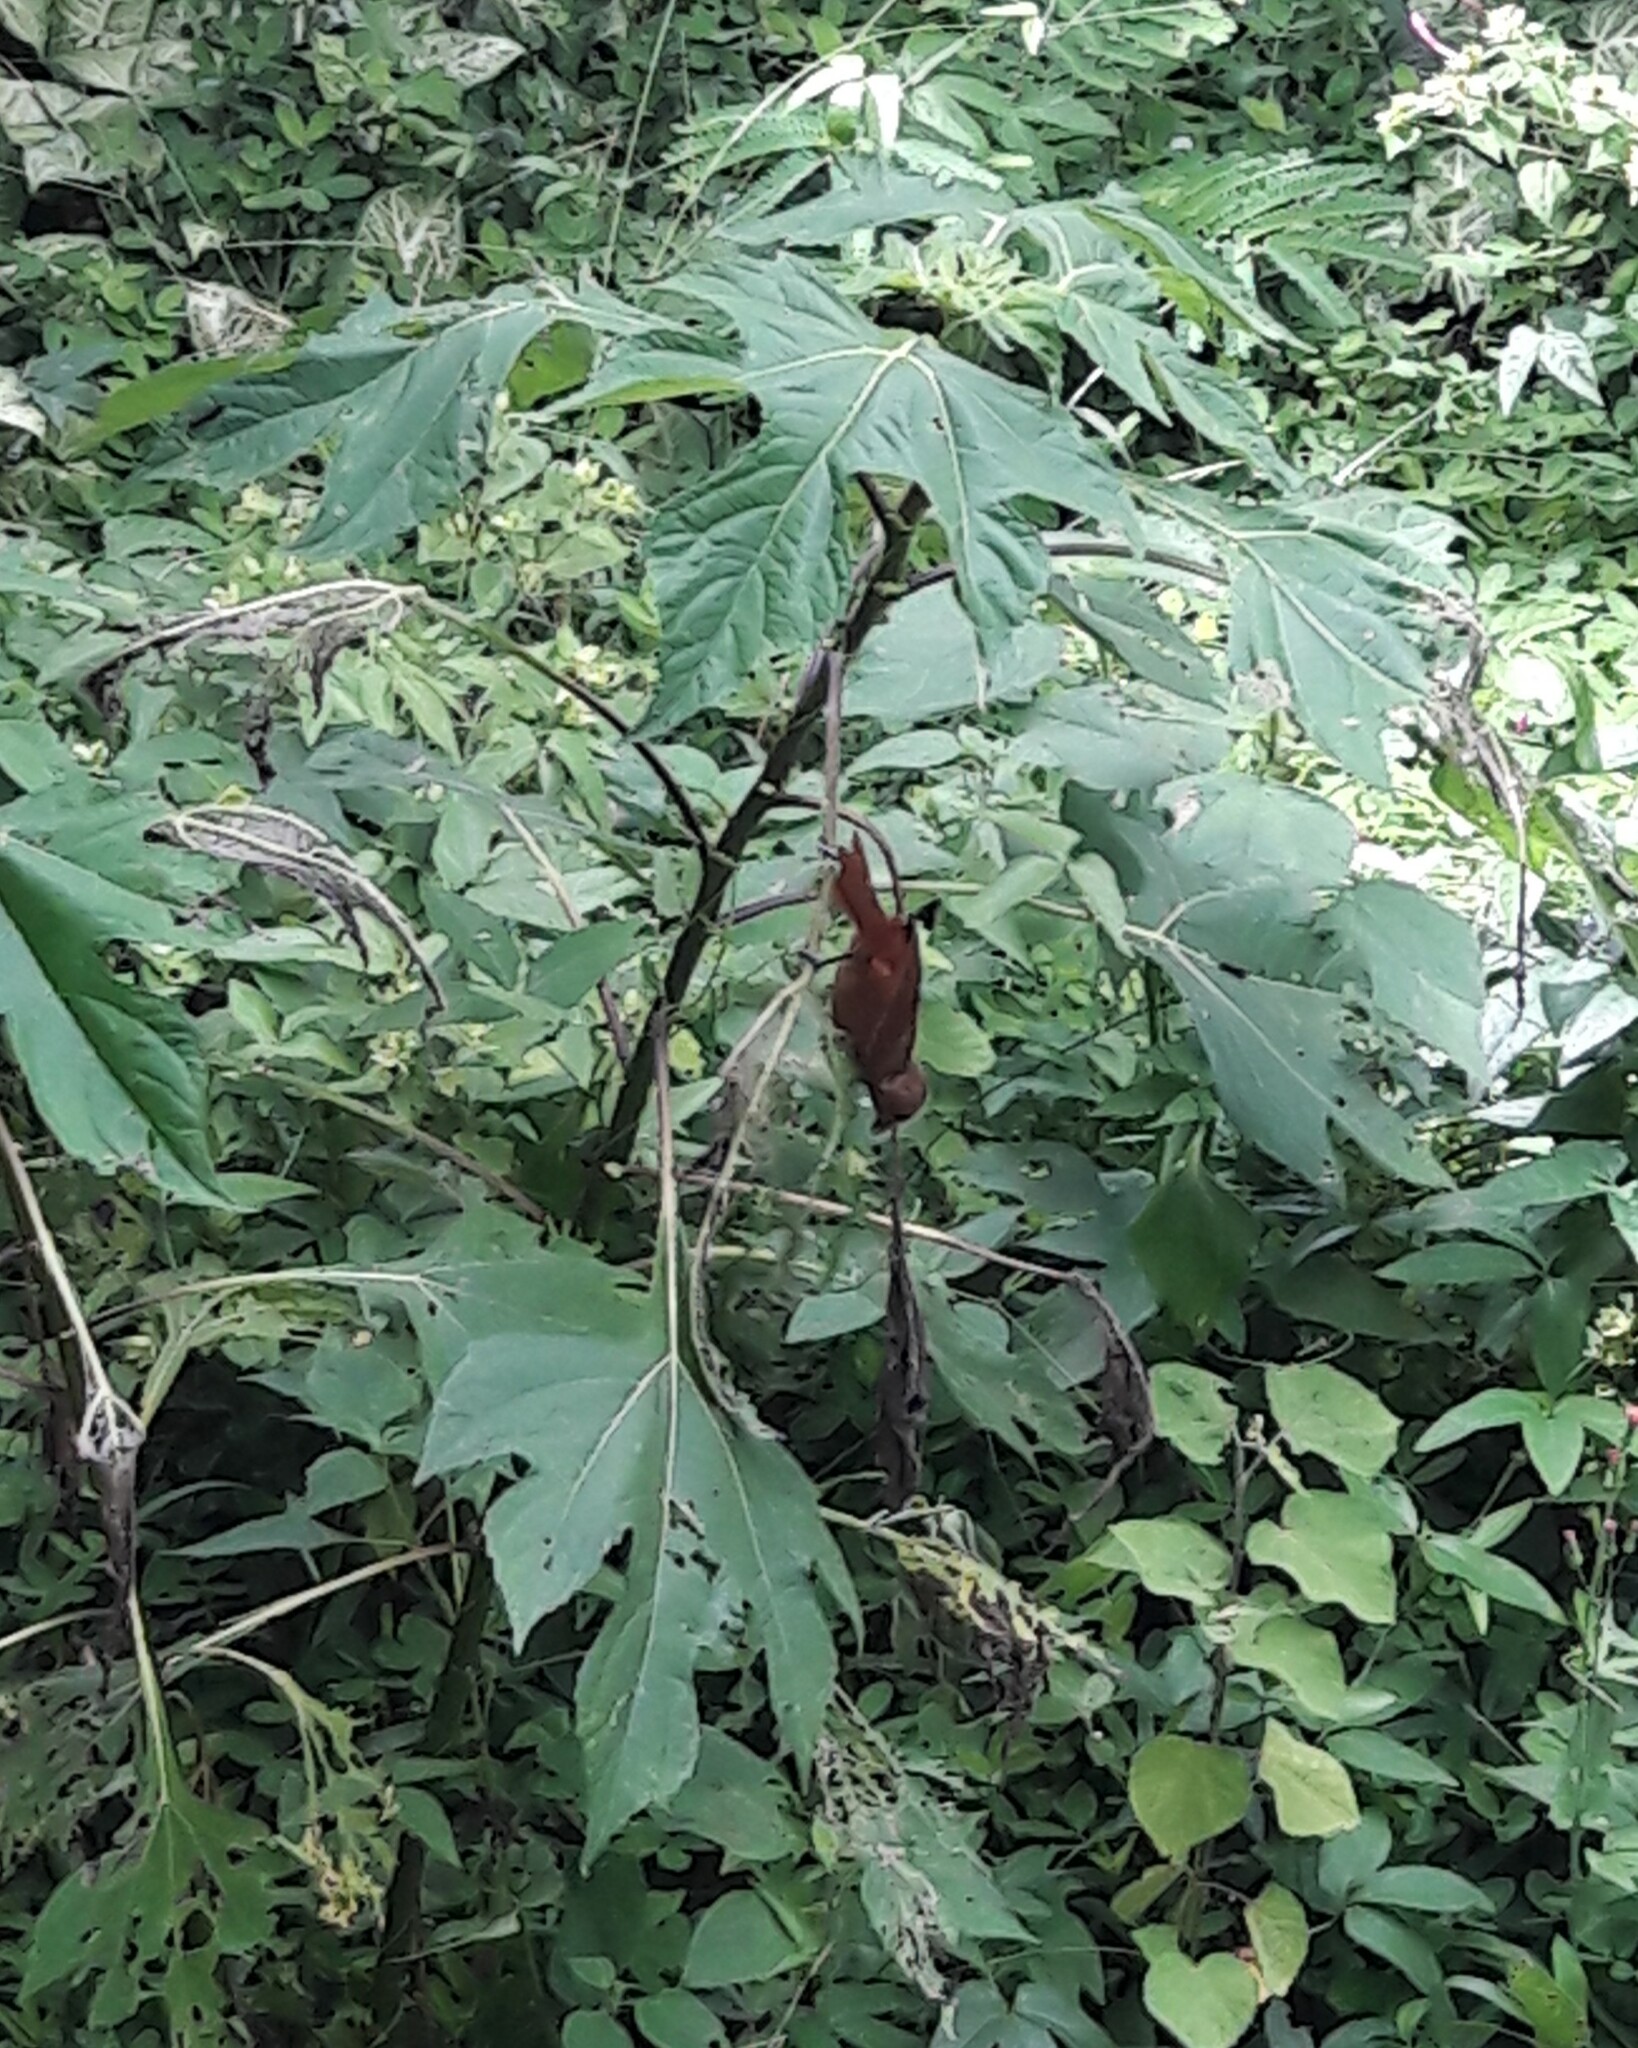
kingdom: Animalia
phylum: Chordata
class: Aves
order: Passeriformes
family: Thraupidae
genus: Tachyphonus
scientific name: Tachyphonus rufus
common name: White-lined tanager
